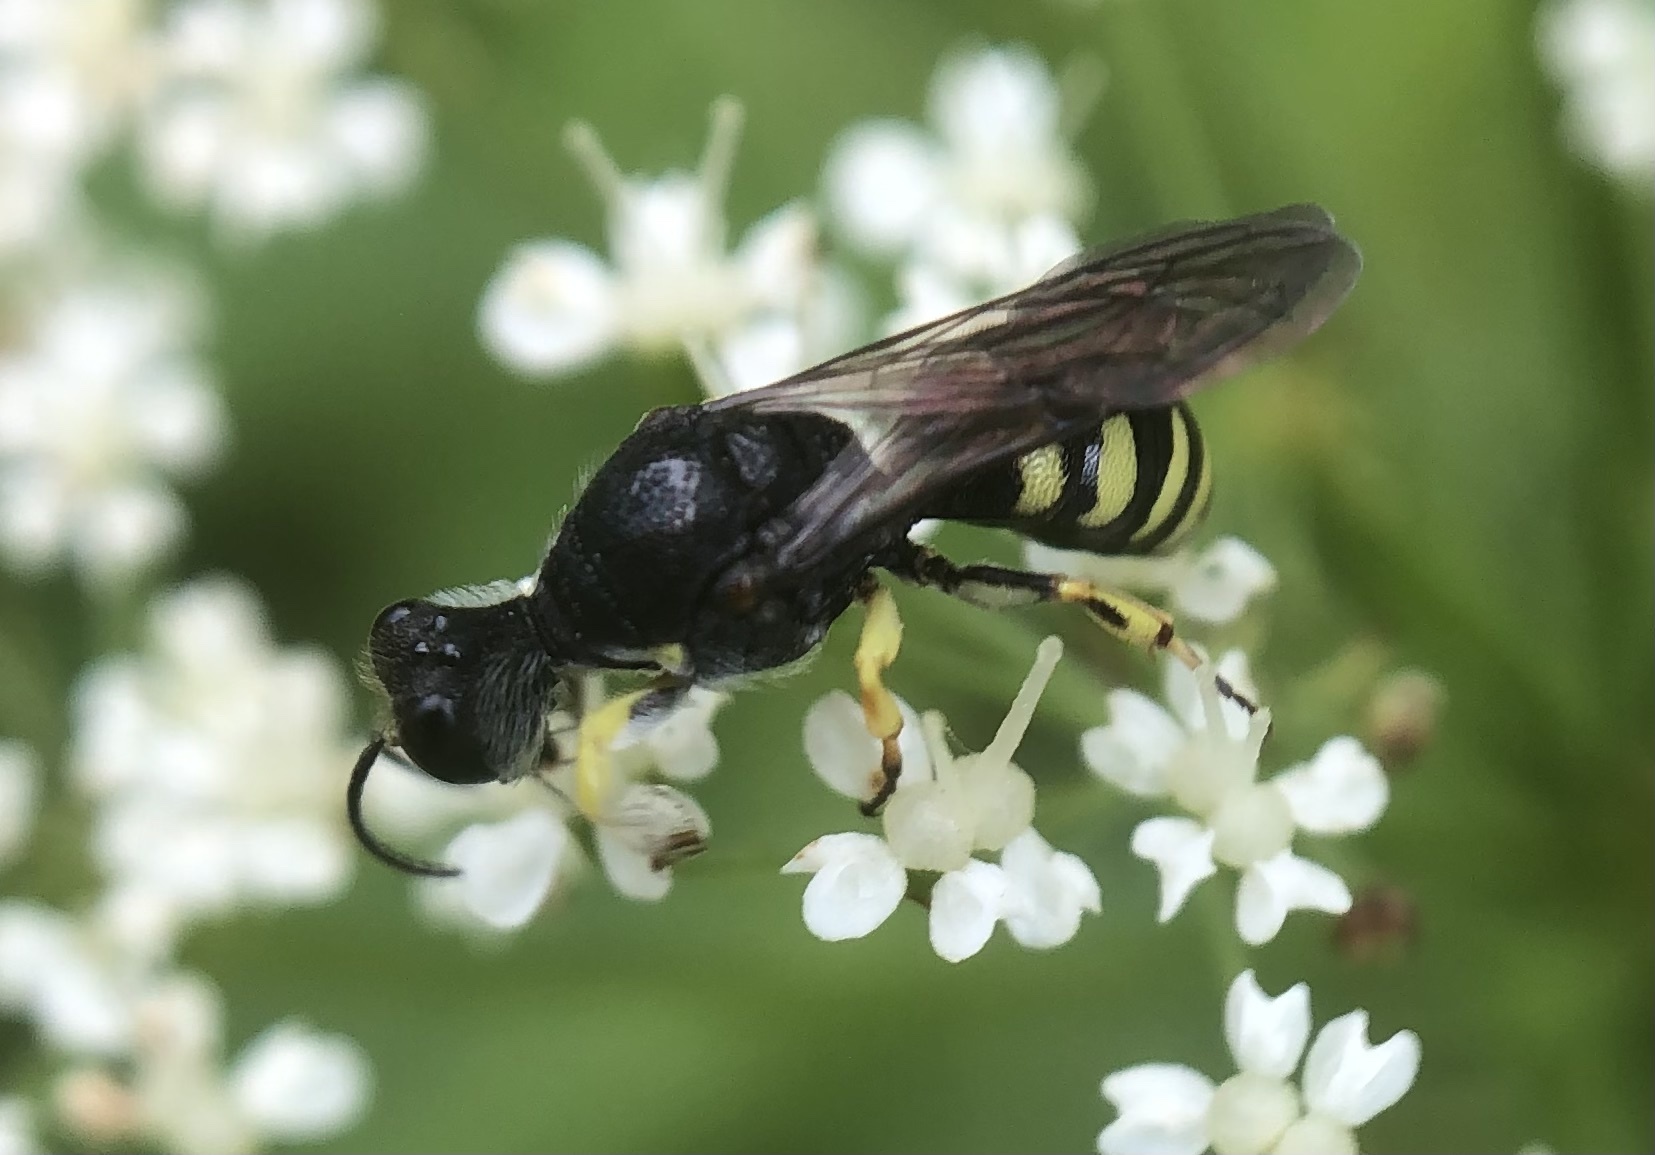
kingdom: Animalia
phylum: Arthropoda
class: Insecta
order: Hymenoptera
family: Crabronidae
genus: Lestica
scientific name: Lestica clypeata
